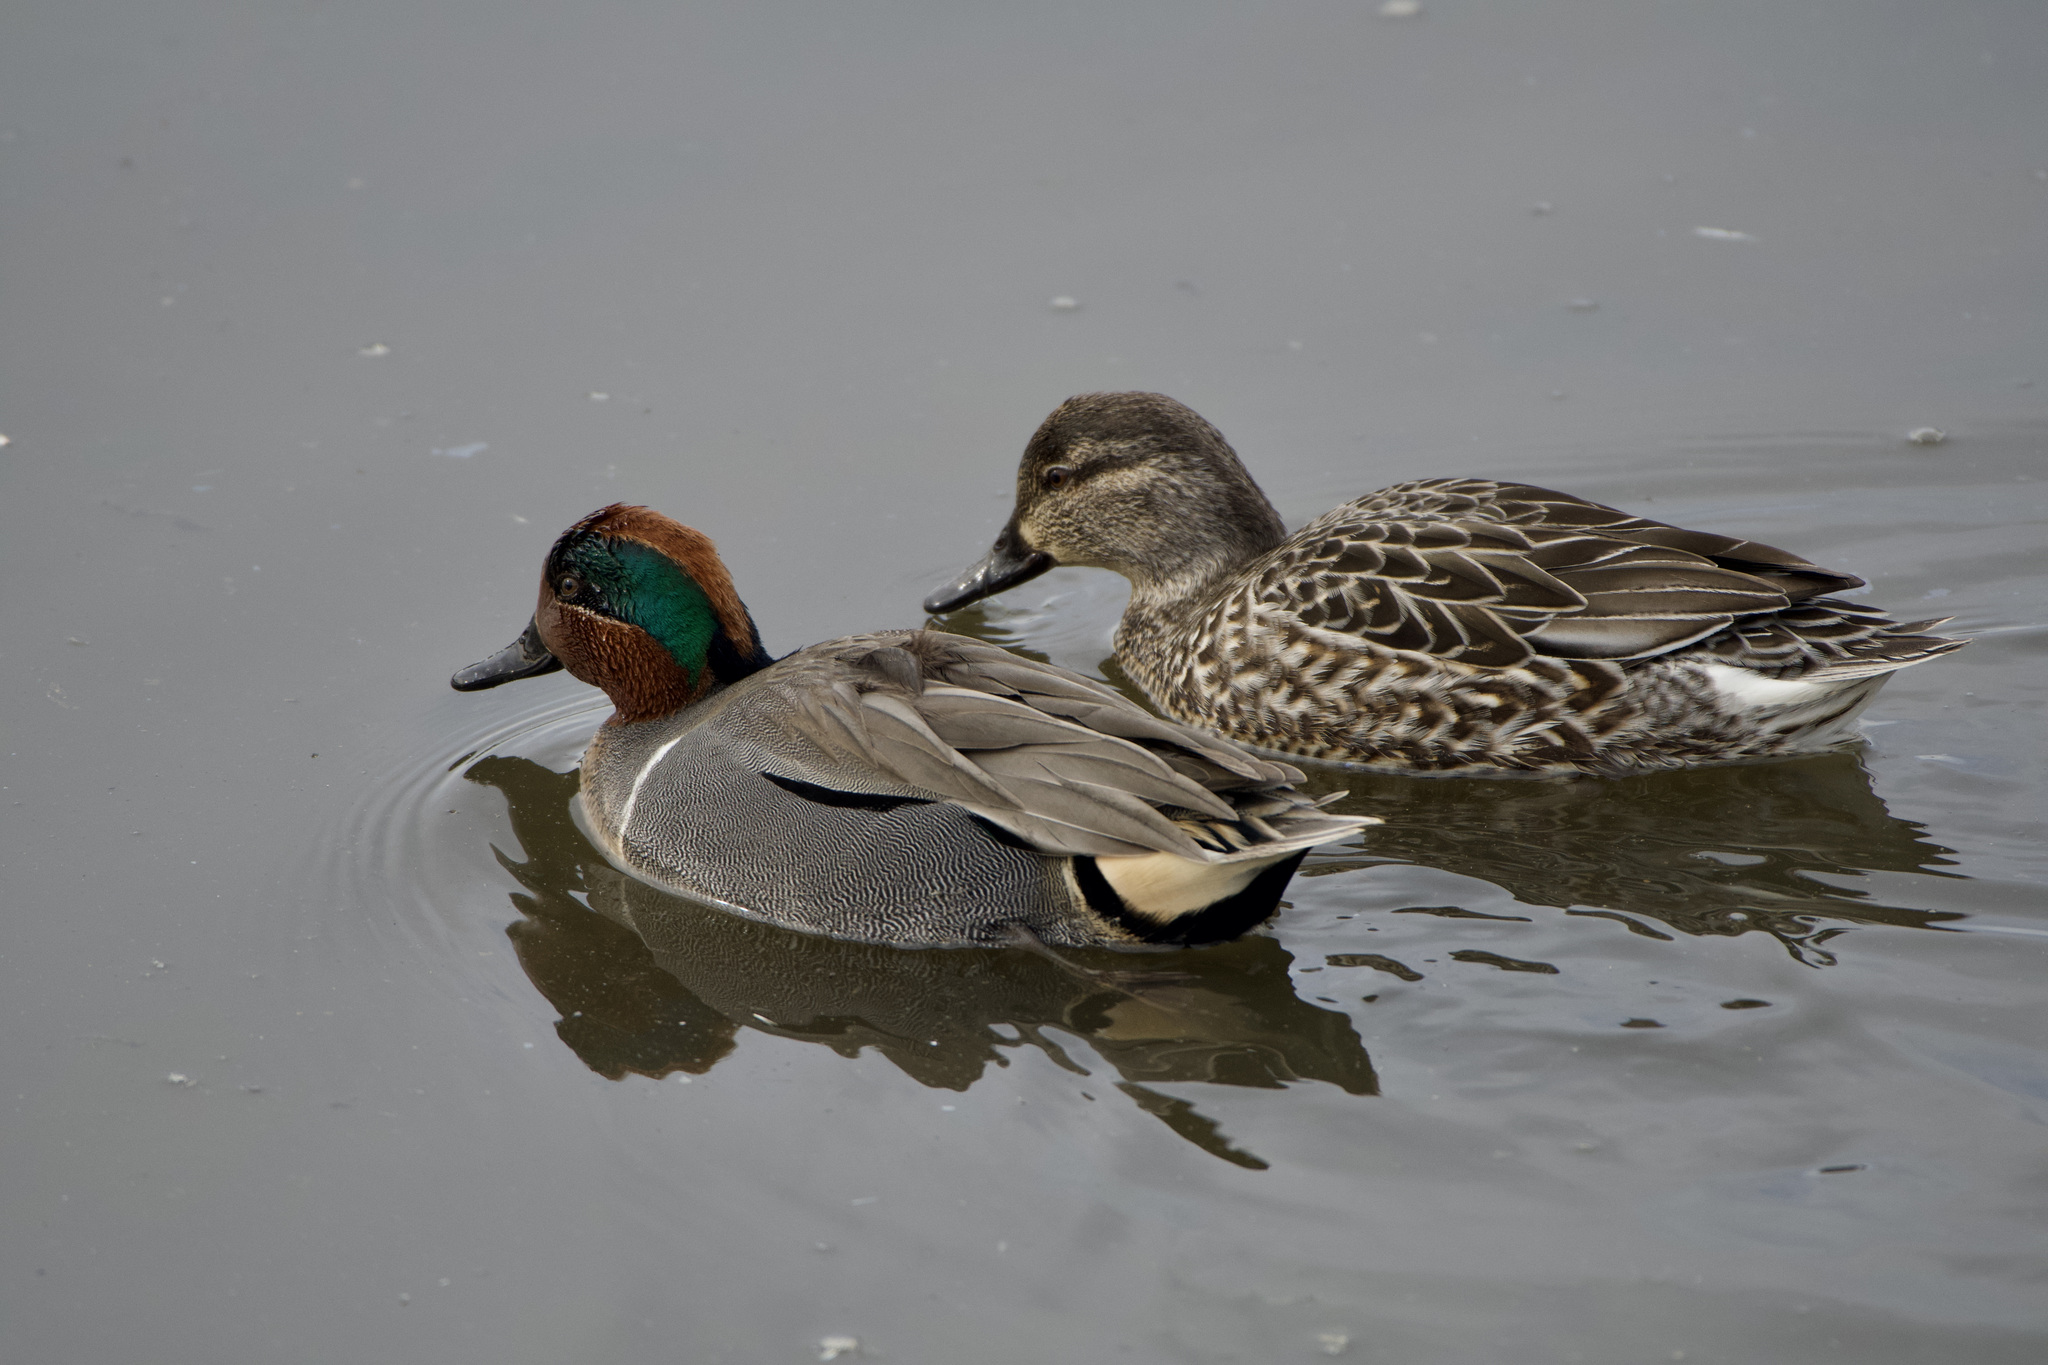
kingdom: Animalia
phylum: Chordata
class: Aves
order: Anseriformes
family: Anatidae
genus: Anas
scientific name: Anas carolinensis
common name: Green-winged teal
